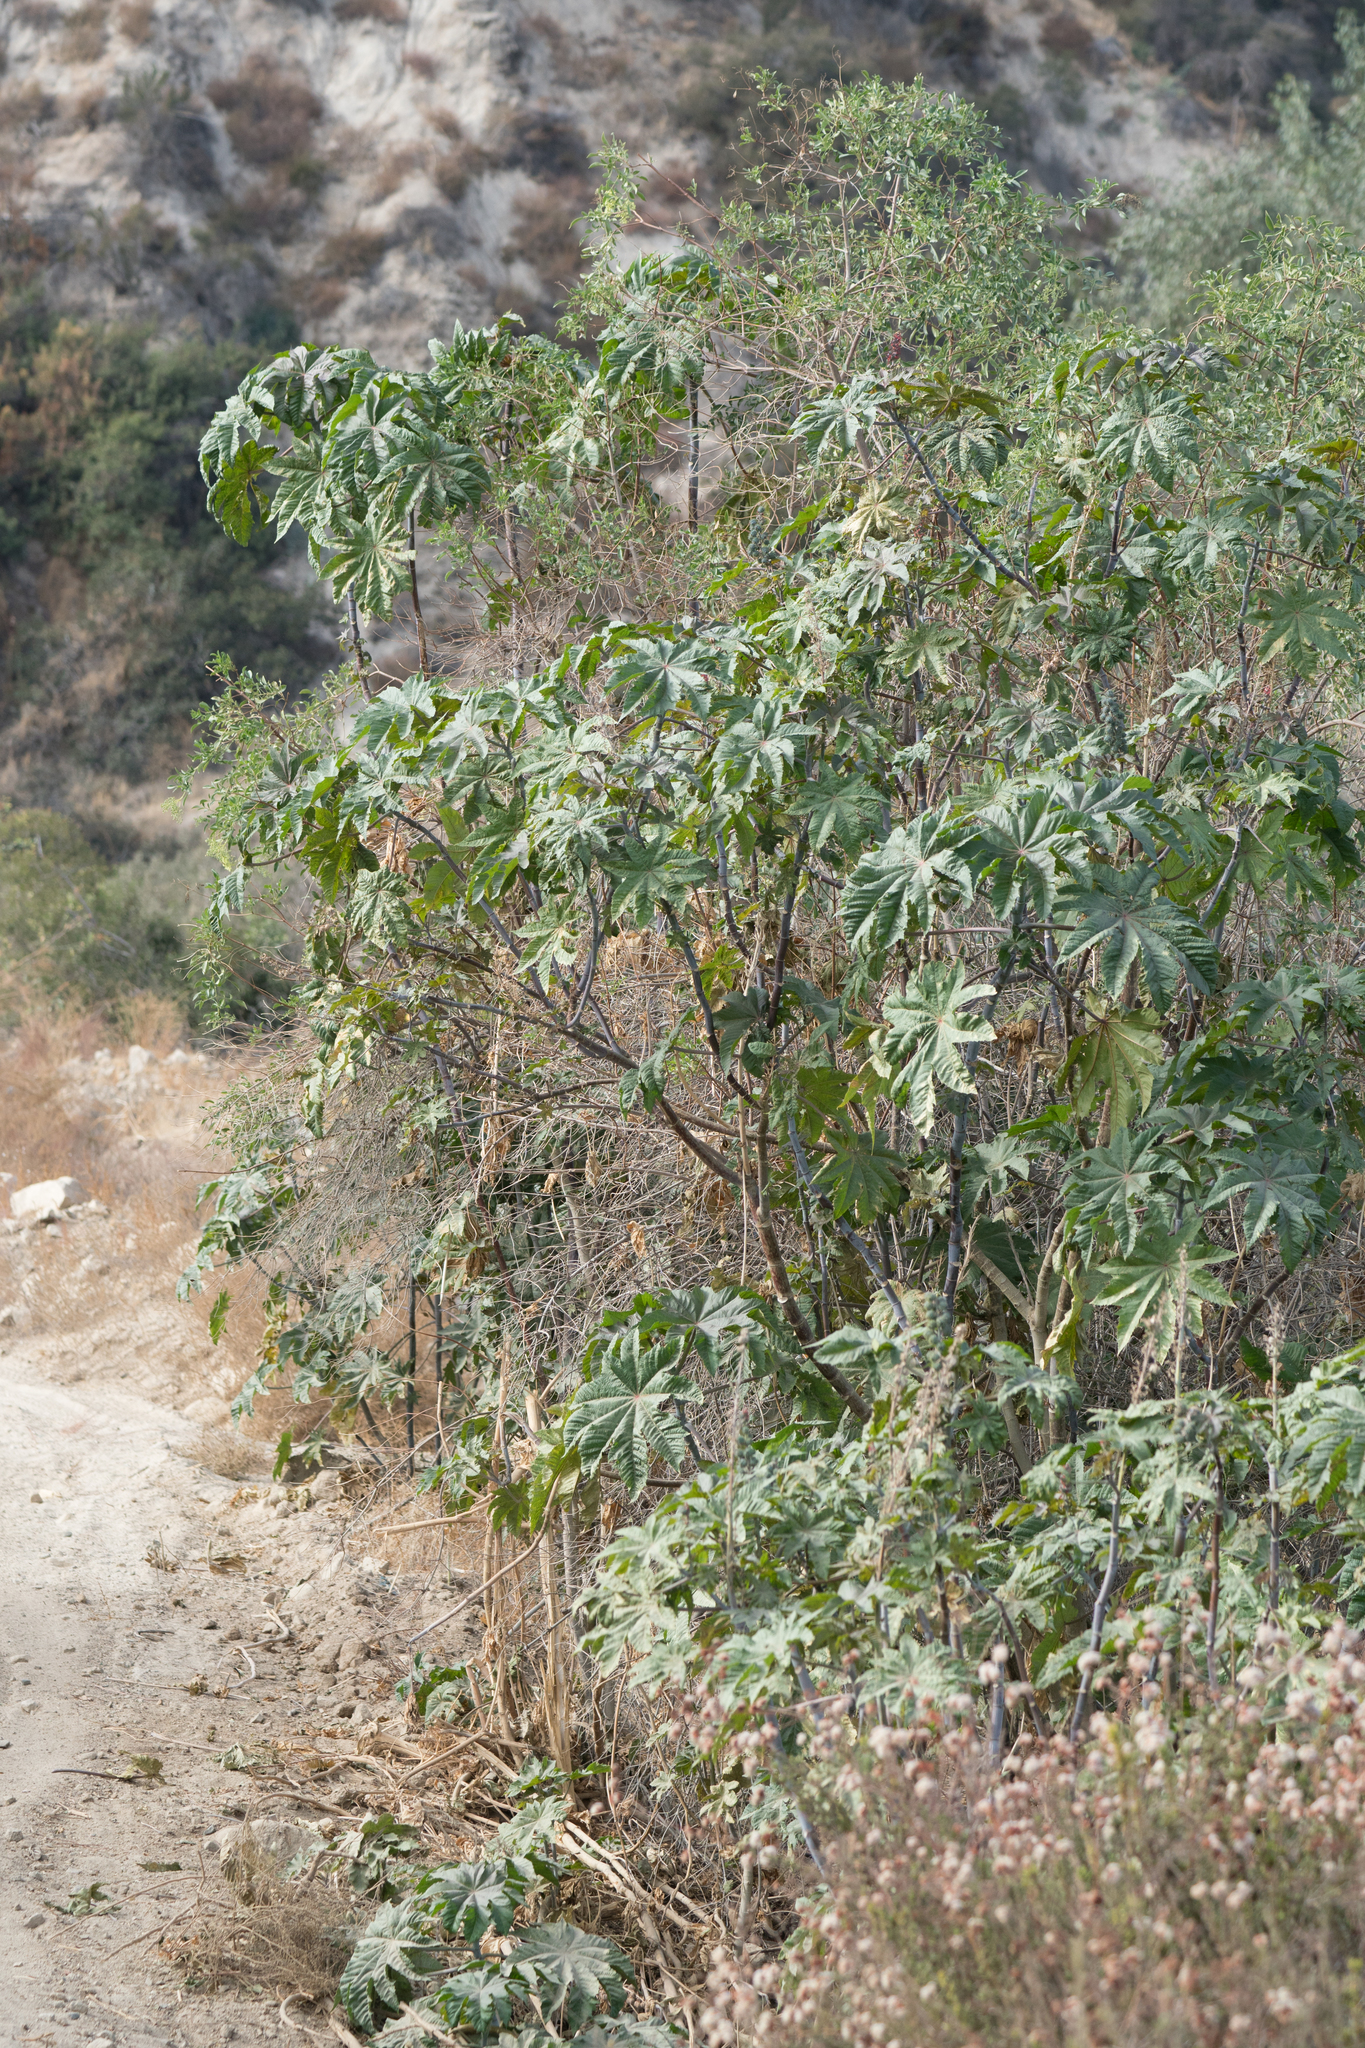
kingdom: Plantae
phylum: Tracheophyta
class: Magnoliopsida
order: Malpighiales
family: Euphorbiaceae
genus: Ricinus
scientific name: Ricinus communis
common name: Castor-oil-plant
